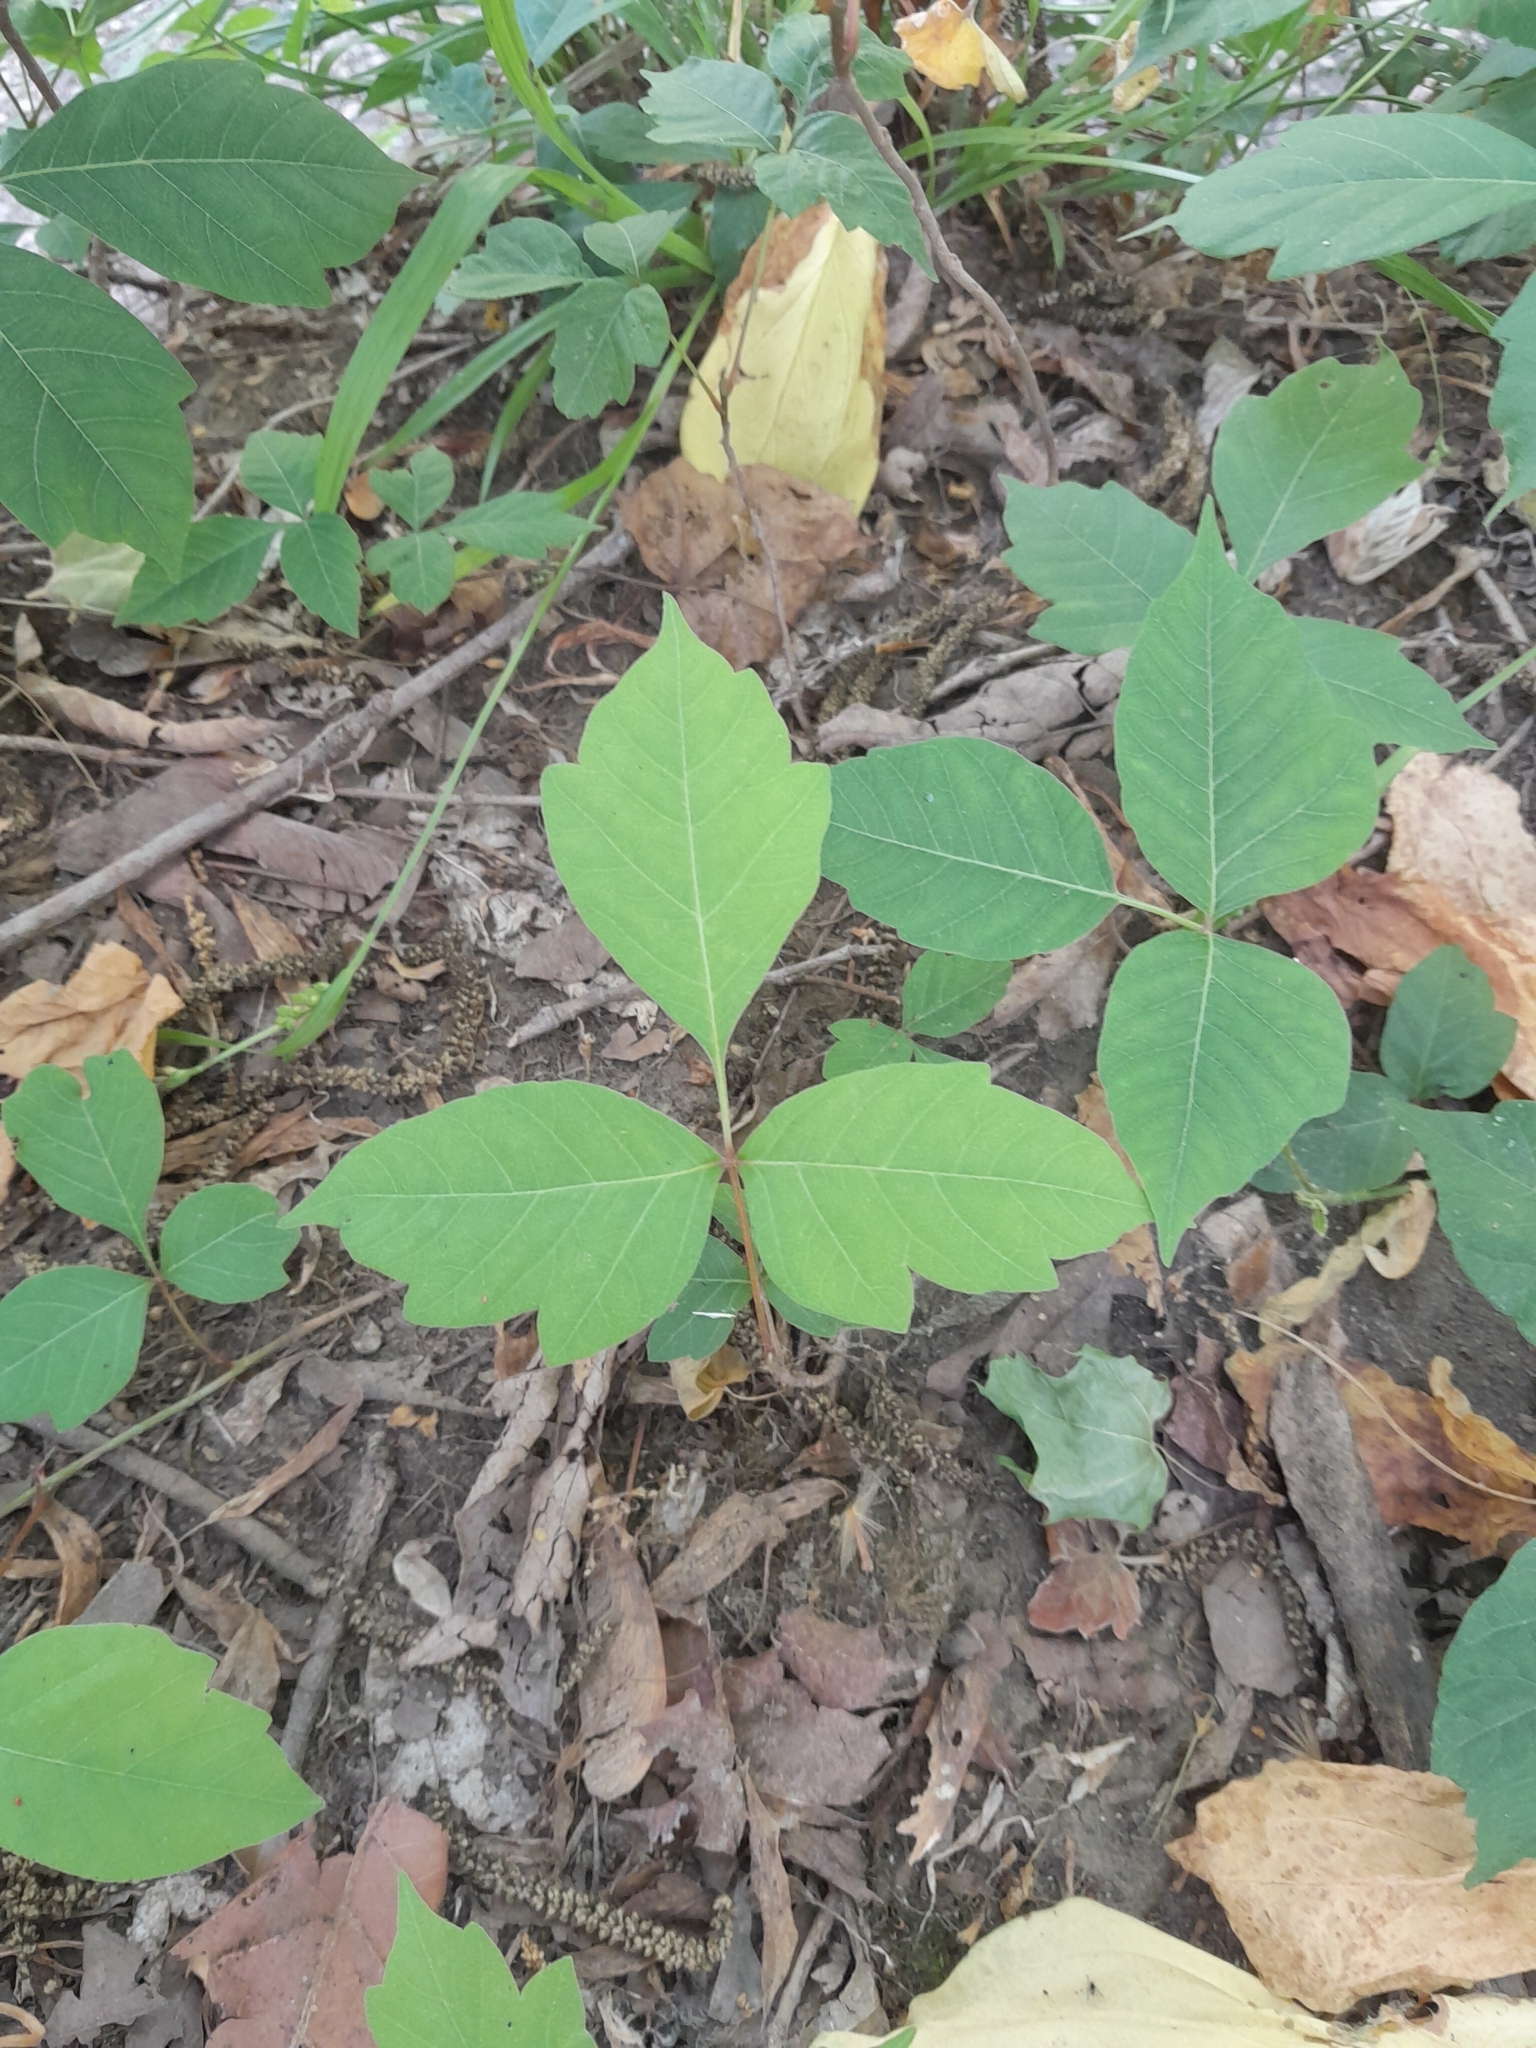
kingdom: Plantae
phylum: Tracheophyta
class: Magnoliopsida
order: Sapindales
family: Anacardiaceae
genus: Toxicodendron
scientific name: Toxicodendron radicans
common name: Poison ivy
